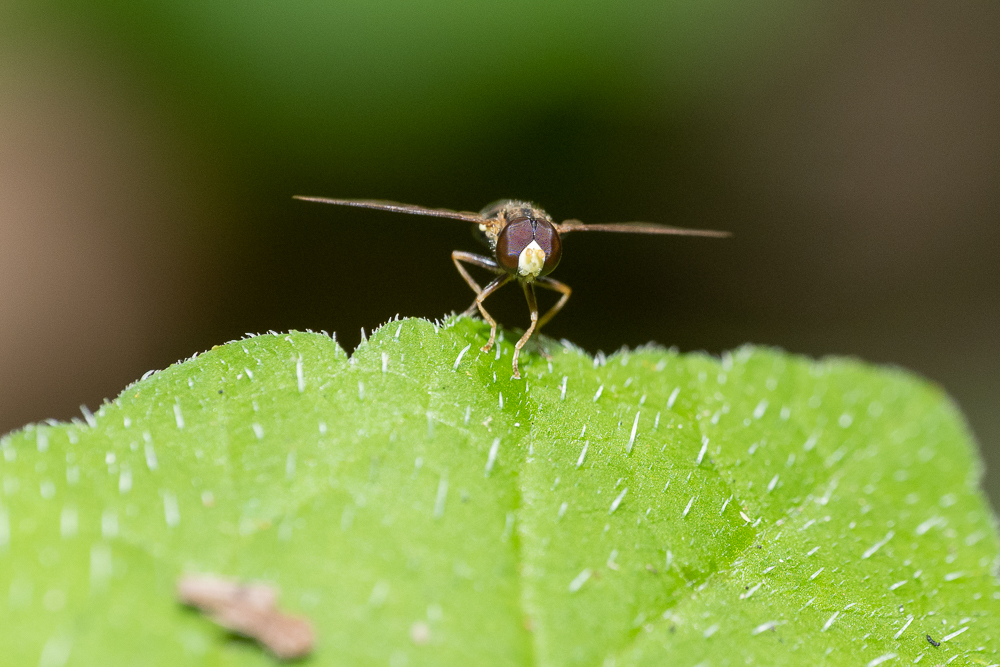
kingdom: Animalia
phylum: Arthropoda
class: Insecta
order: Diptera
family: Syrphidae
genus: Toxomerus
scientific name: Toxomerus
